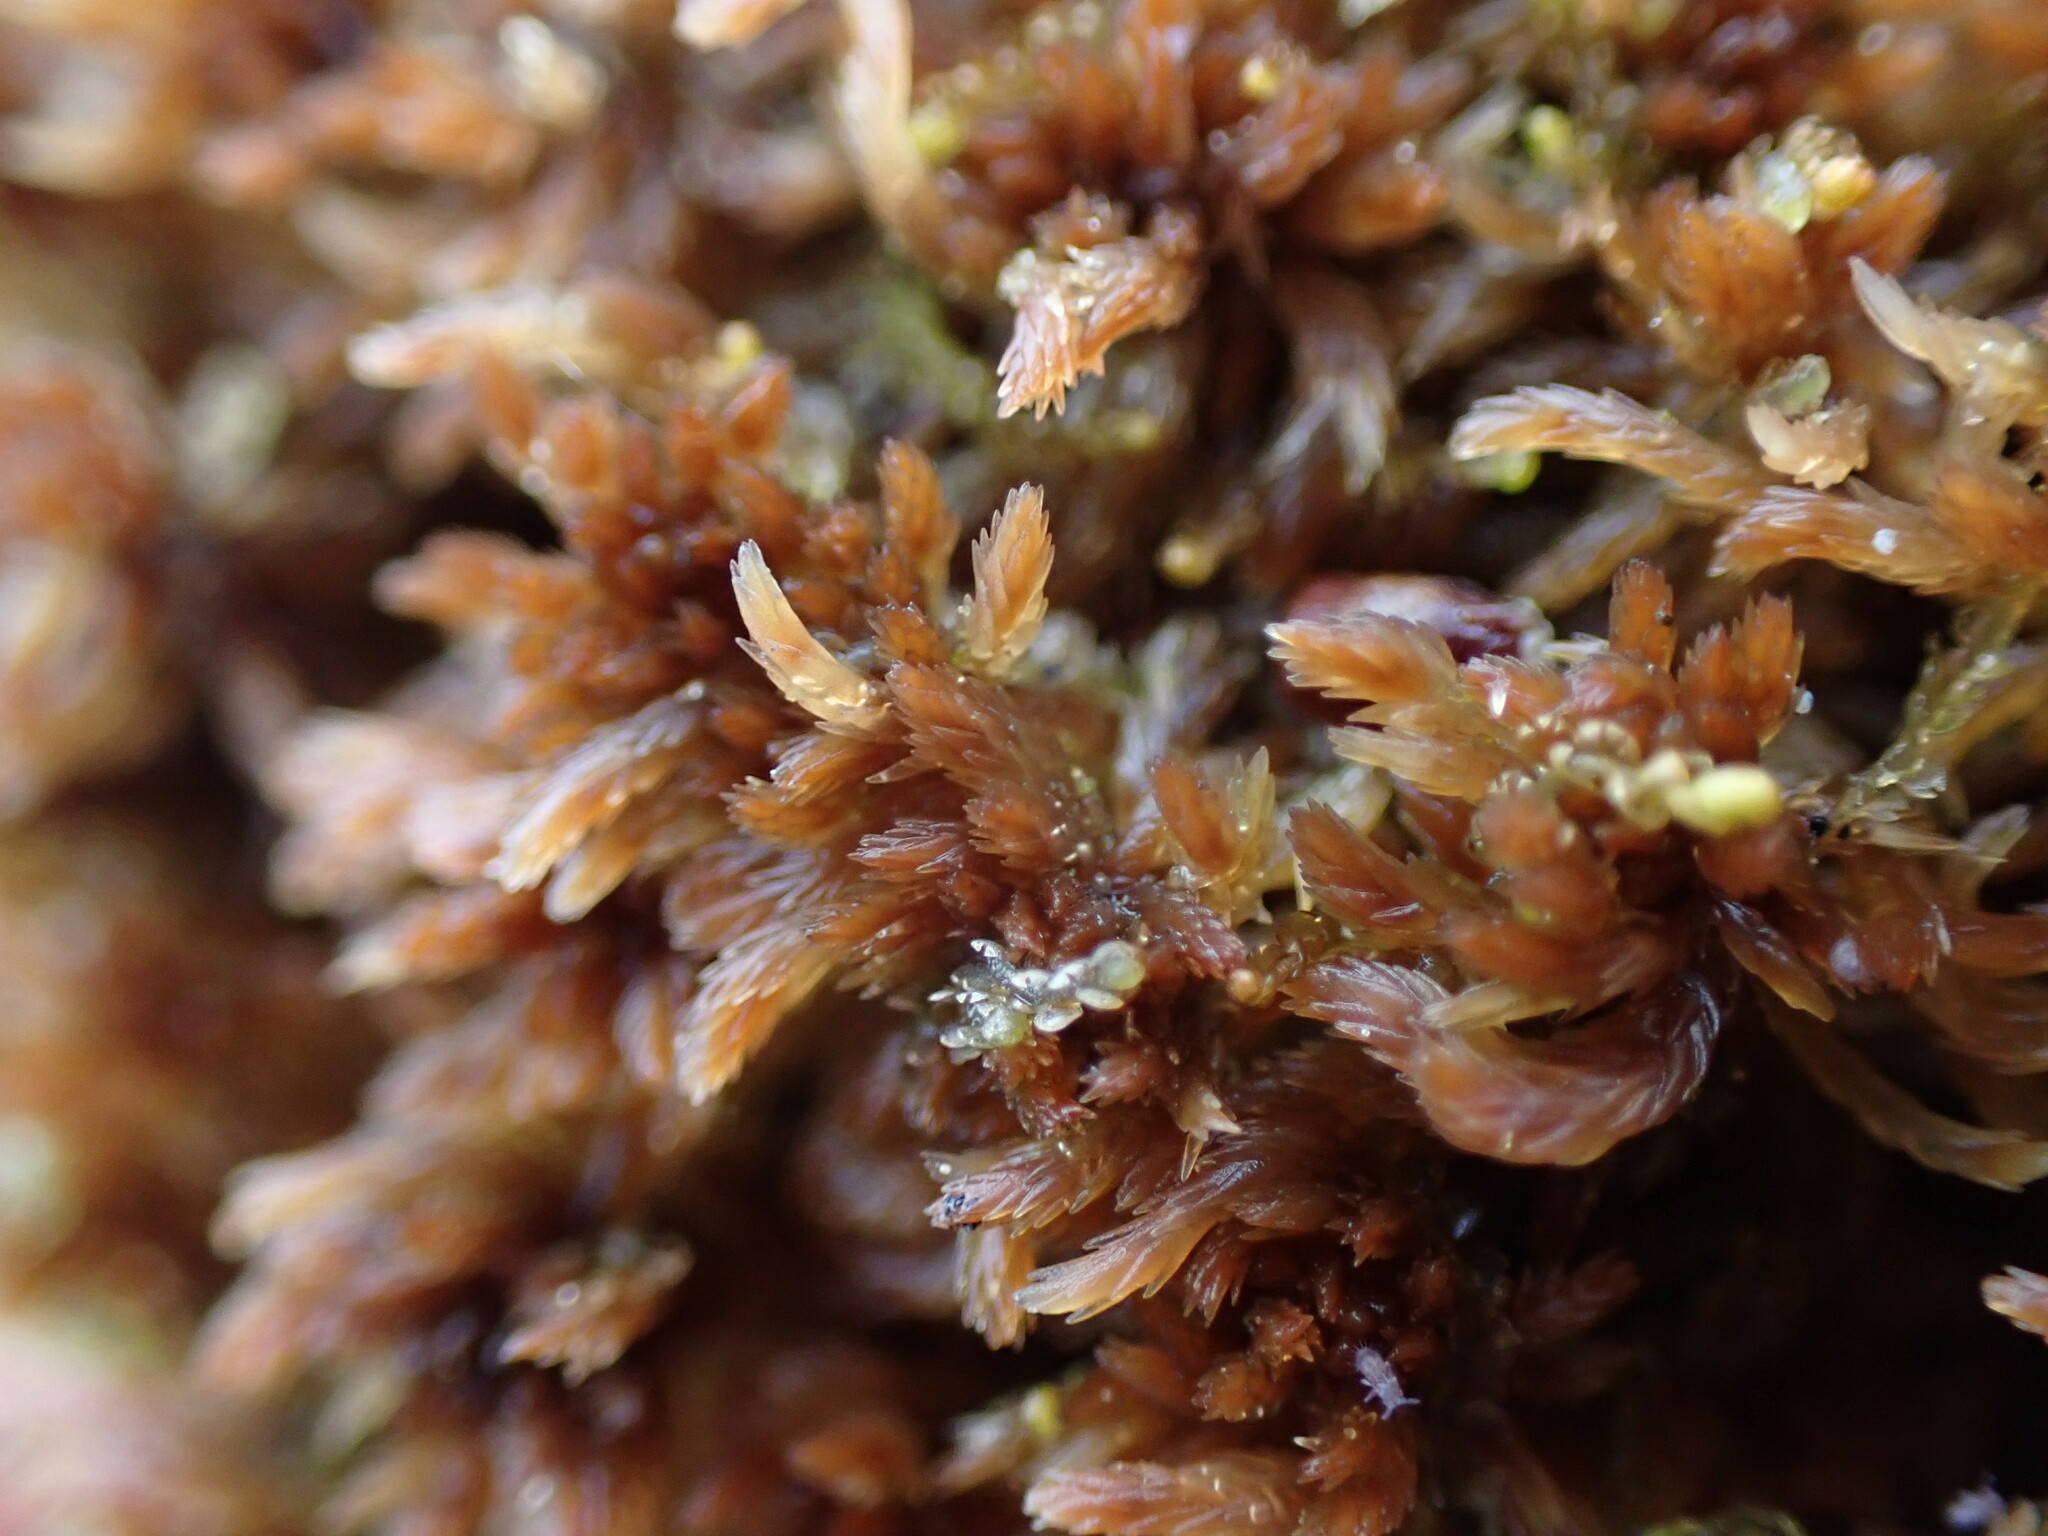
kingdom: Plantae
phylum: Bryophyta
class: Sphagnopsida
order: Sphagnales
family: Sphagnaceae
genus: Sphagnum
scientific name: Sphagnum fuscum
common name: Brown peat moss
